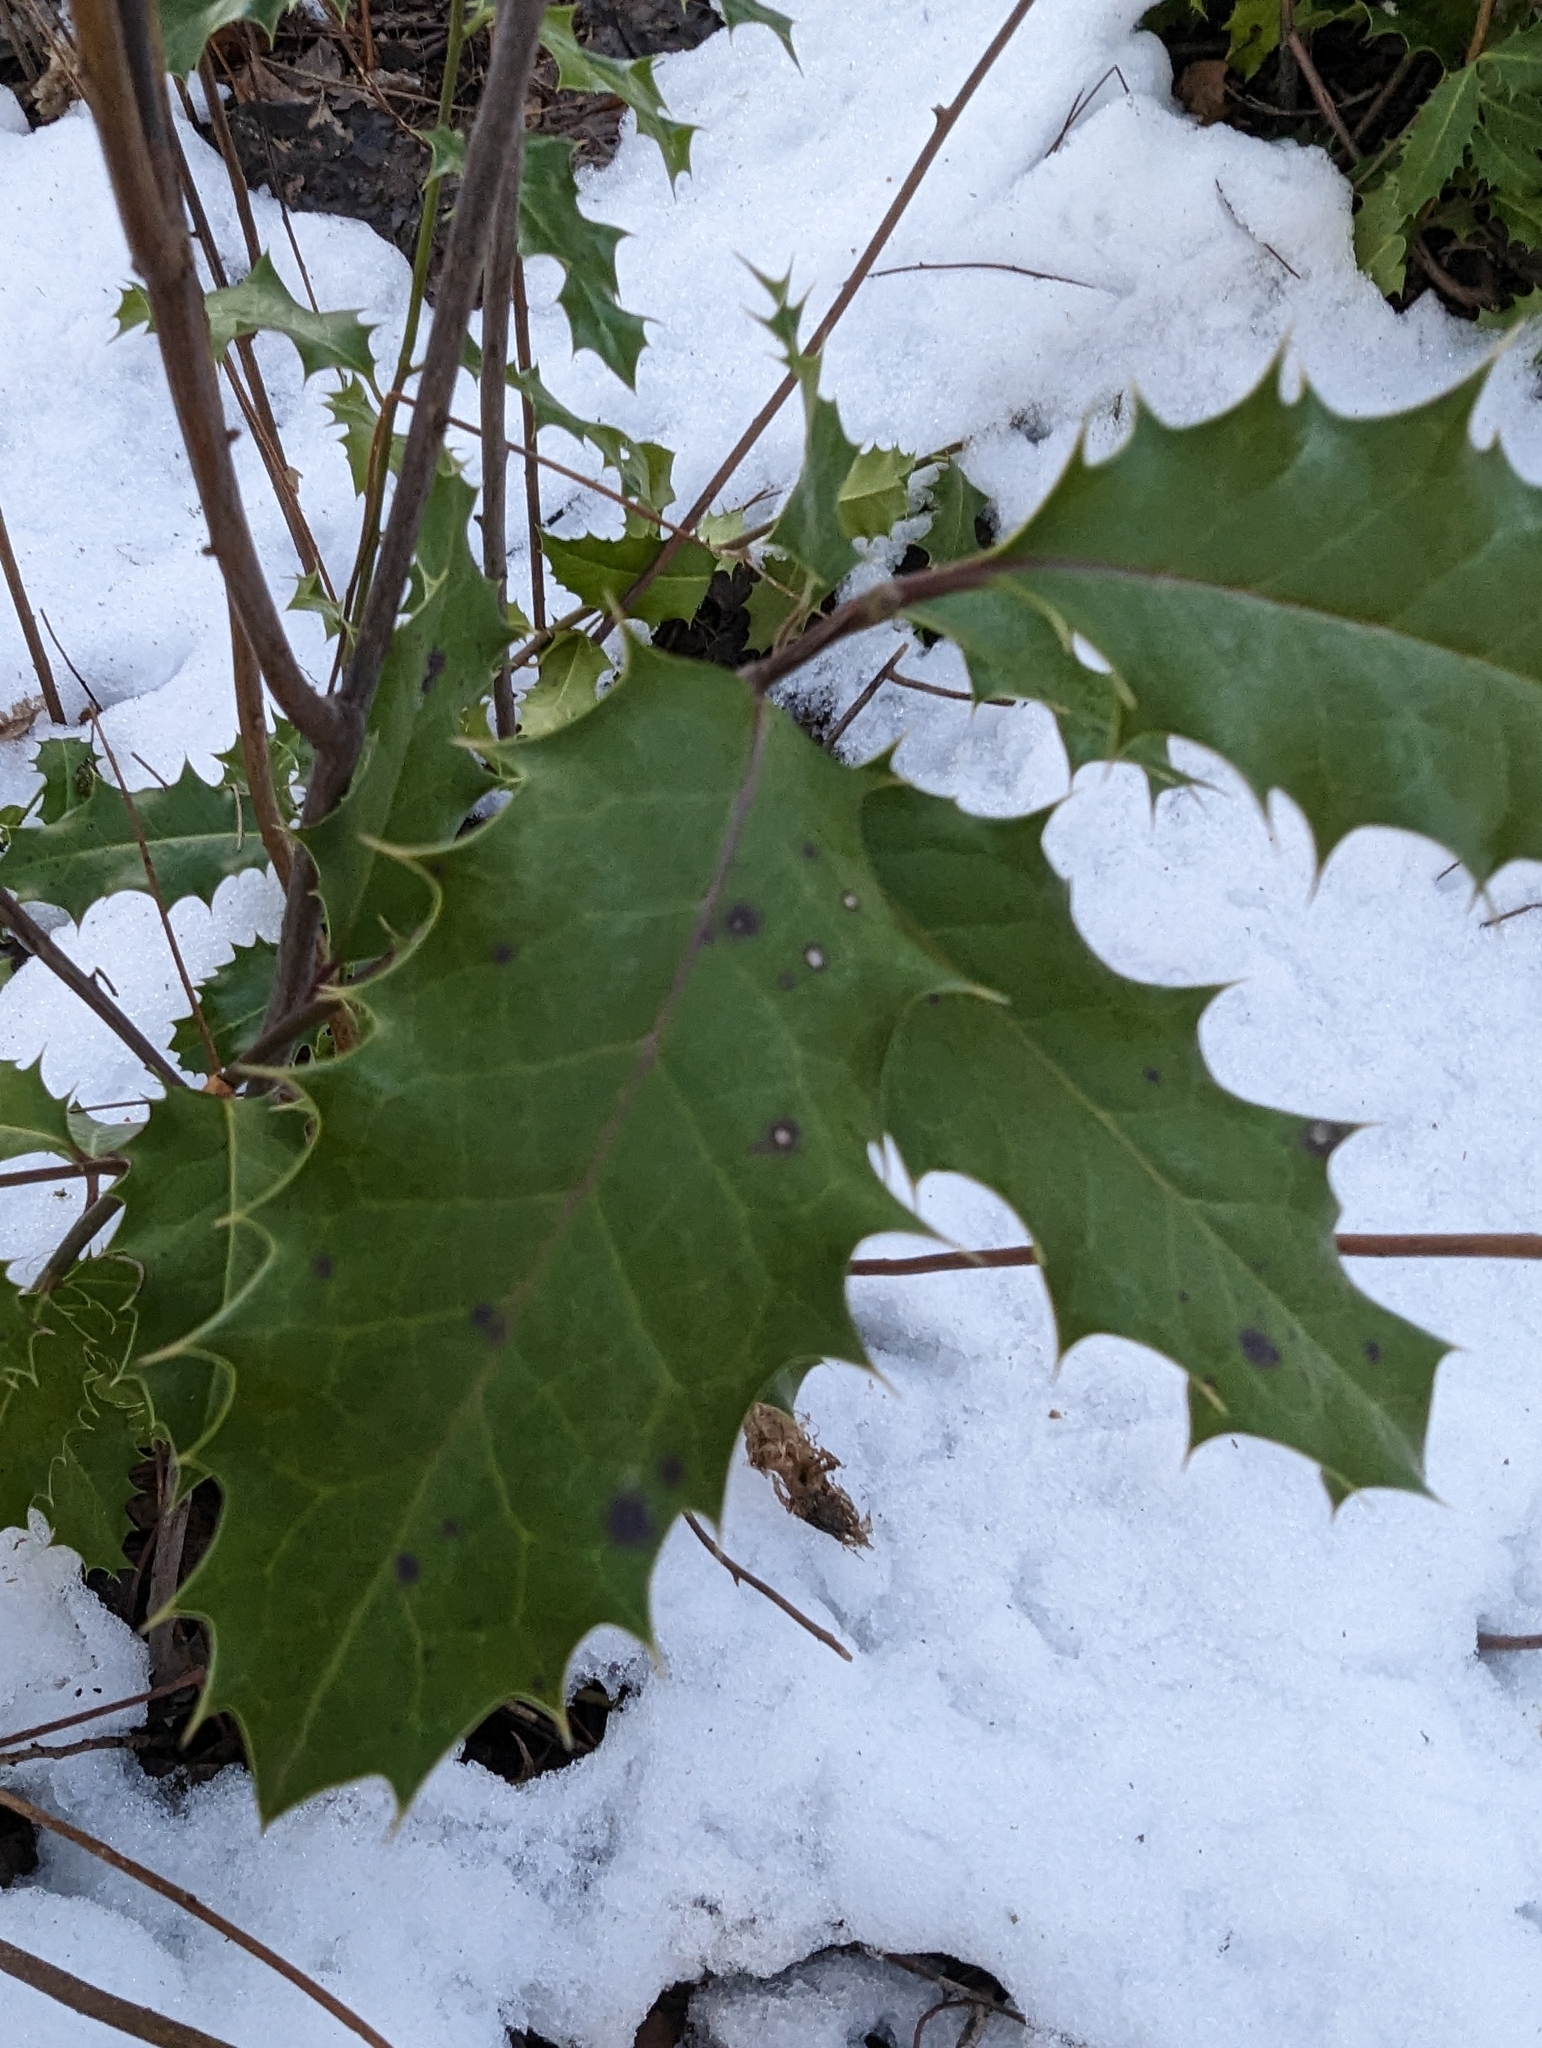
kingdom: Plantae
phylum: Tracheophyta
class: Magnoliopsida
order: Aquifoliales
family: Aquifoliaceae
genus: Ilex
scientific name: Ilex aquifolium
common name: English holly
